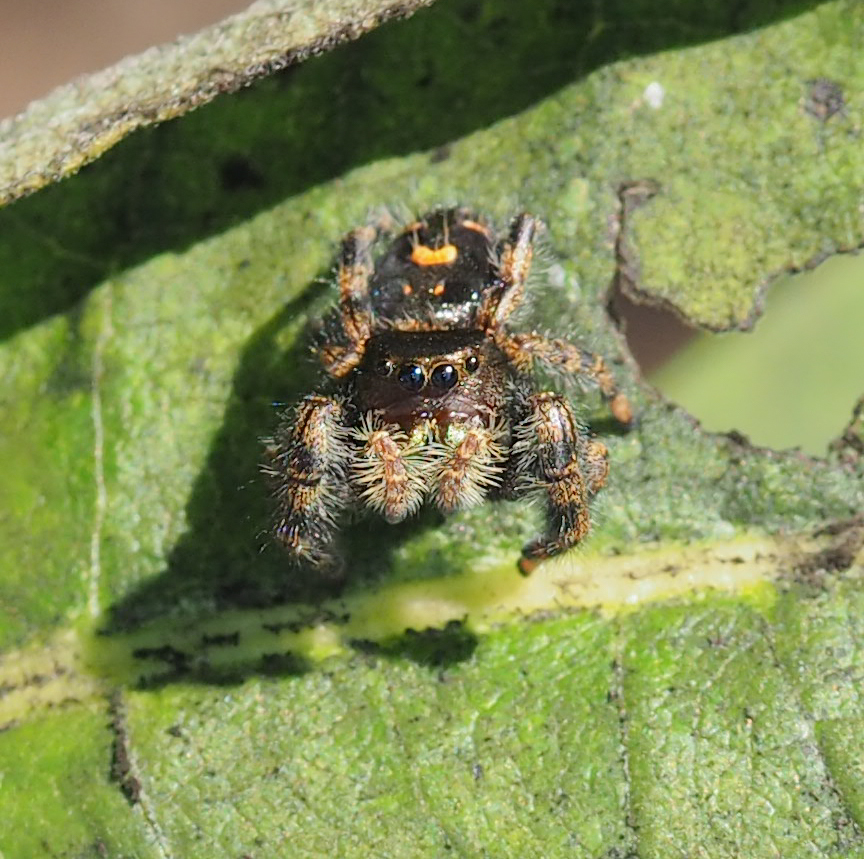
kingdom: Animalia
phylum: Arthropoda
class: Arachnida
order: Araneae
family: Salticidae
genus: Phidippus
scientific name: Phidippus audax
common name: Bold jumper
